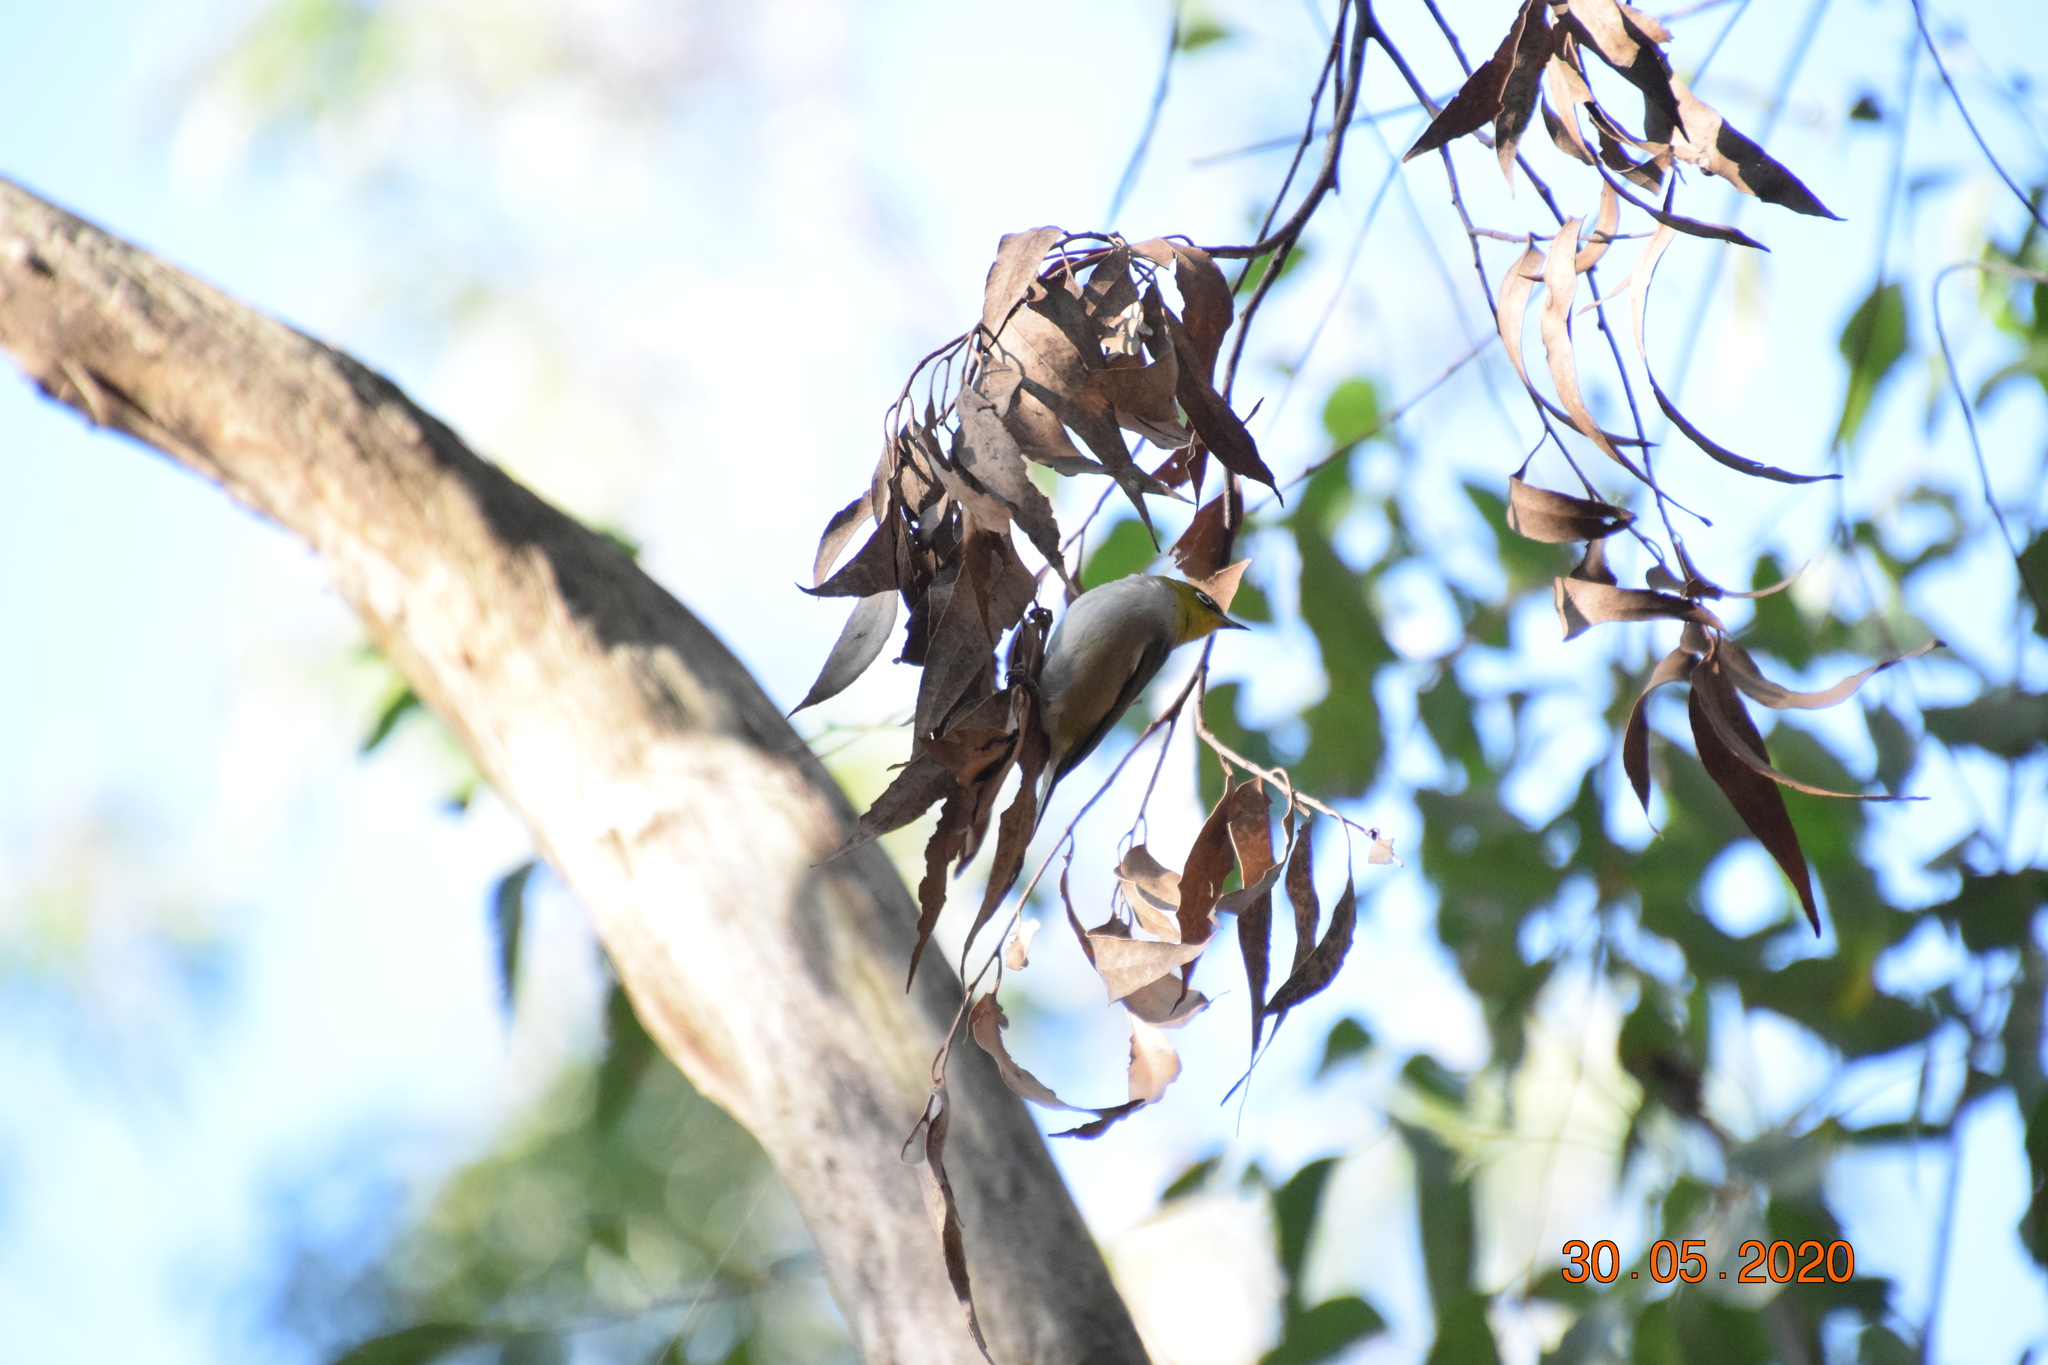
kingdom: Animalia
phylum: Chordata
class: Aves
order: Passeriformes
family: Zosteropidae
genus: Zosterops
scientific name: Zosterops lateralis
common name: Silvereye
